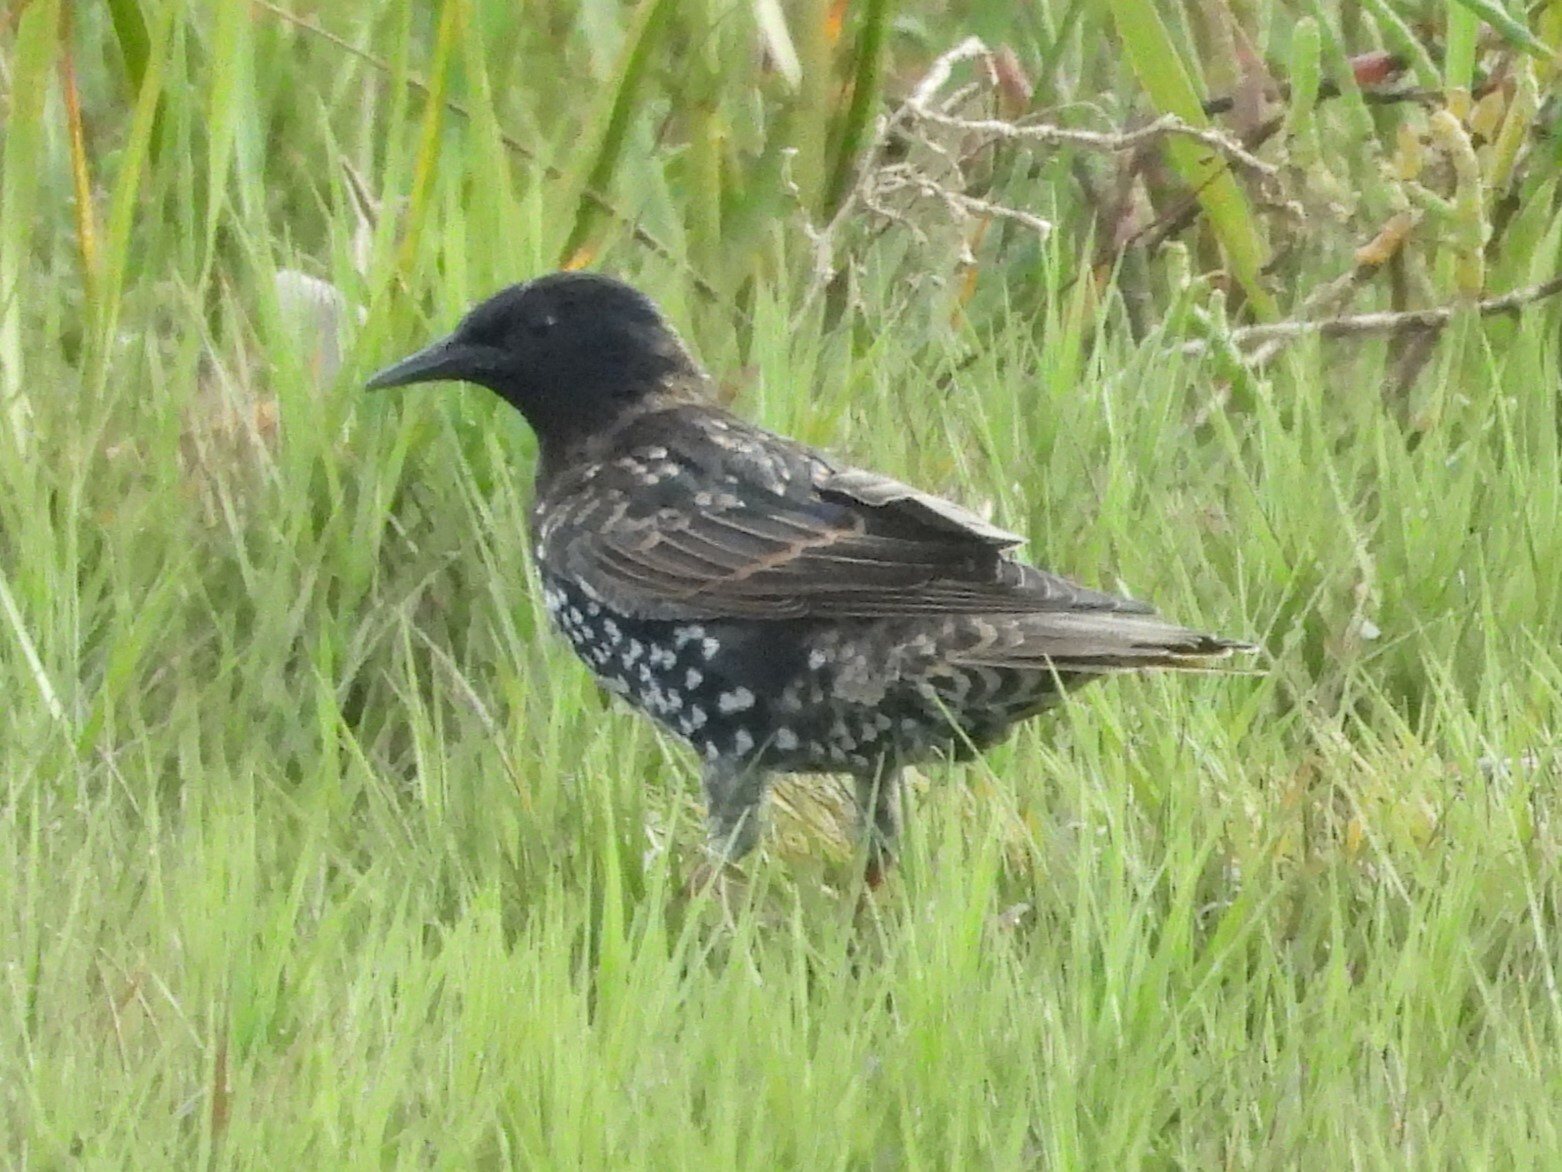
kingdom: Animalia
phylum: Chordata
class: Aves
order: Passeriformes
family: Sturnidae
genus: Sturnus
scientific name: Sturnus vulgaris
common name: Common starling
